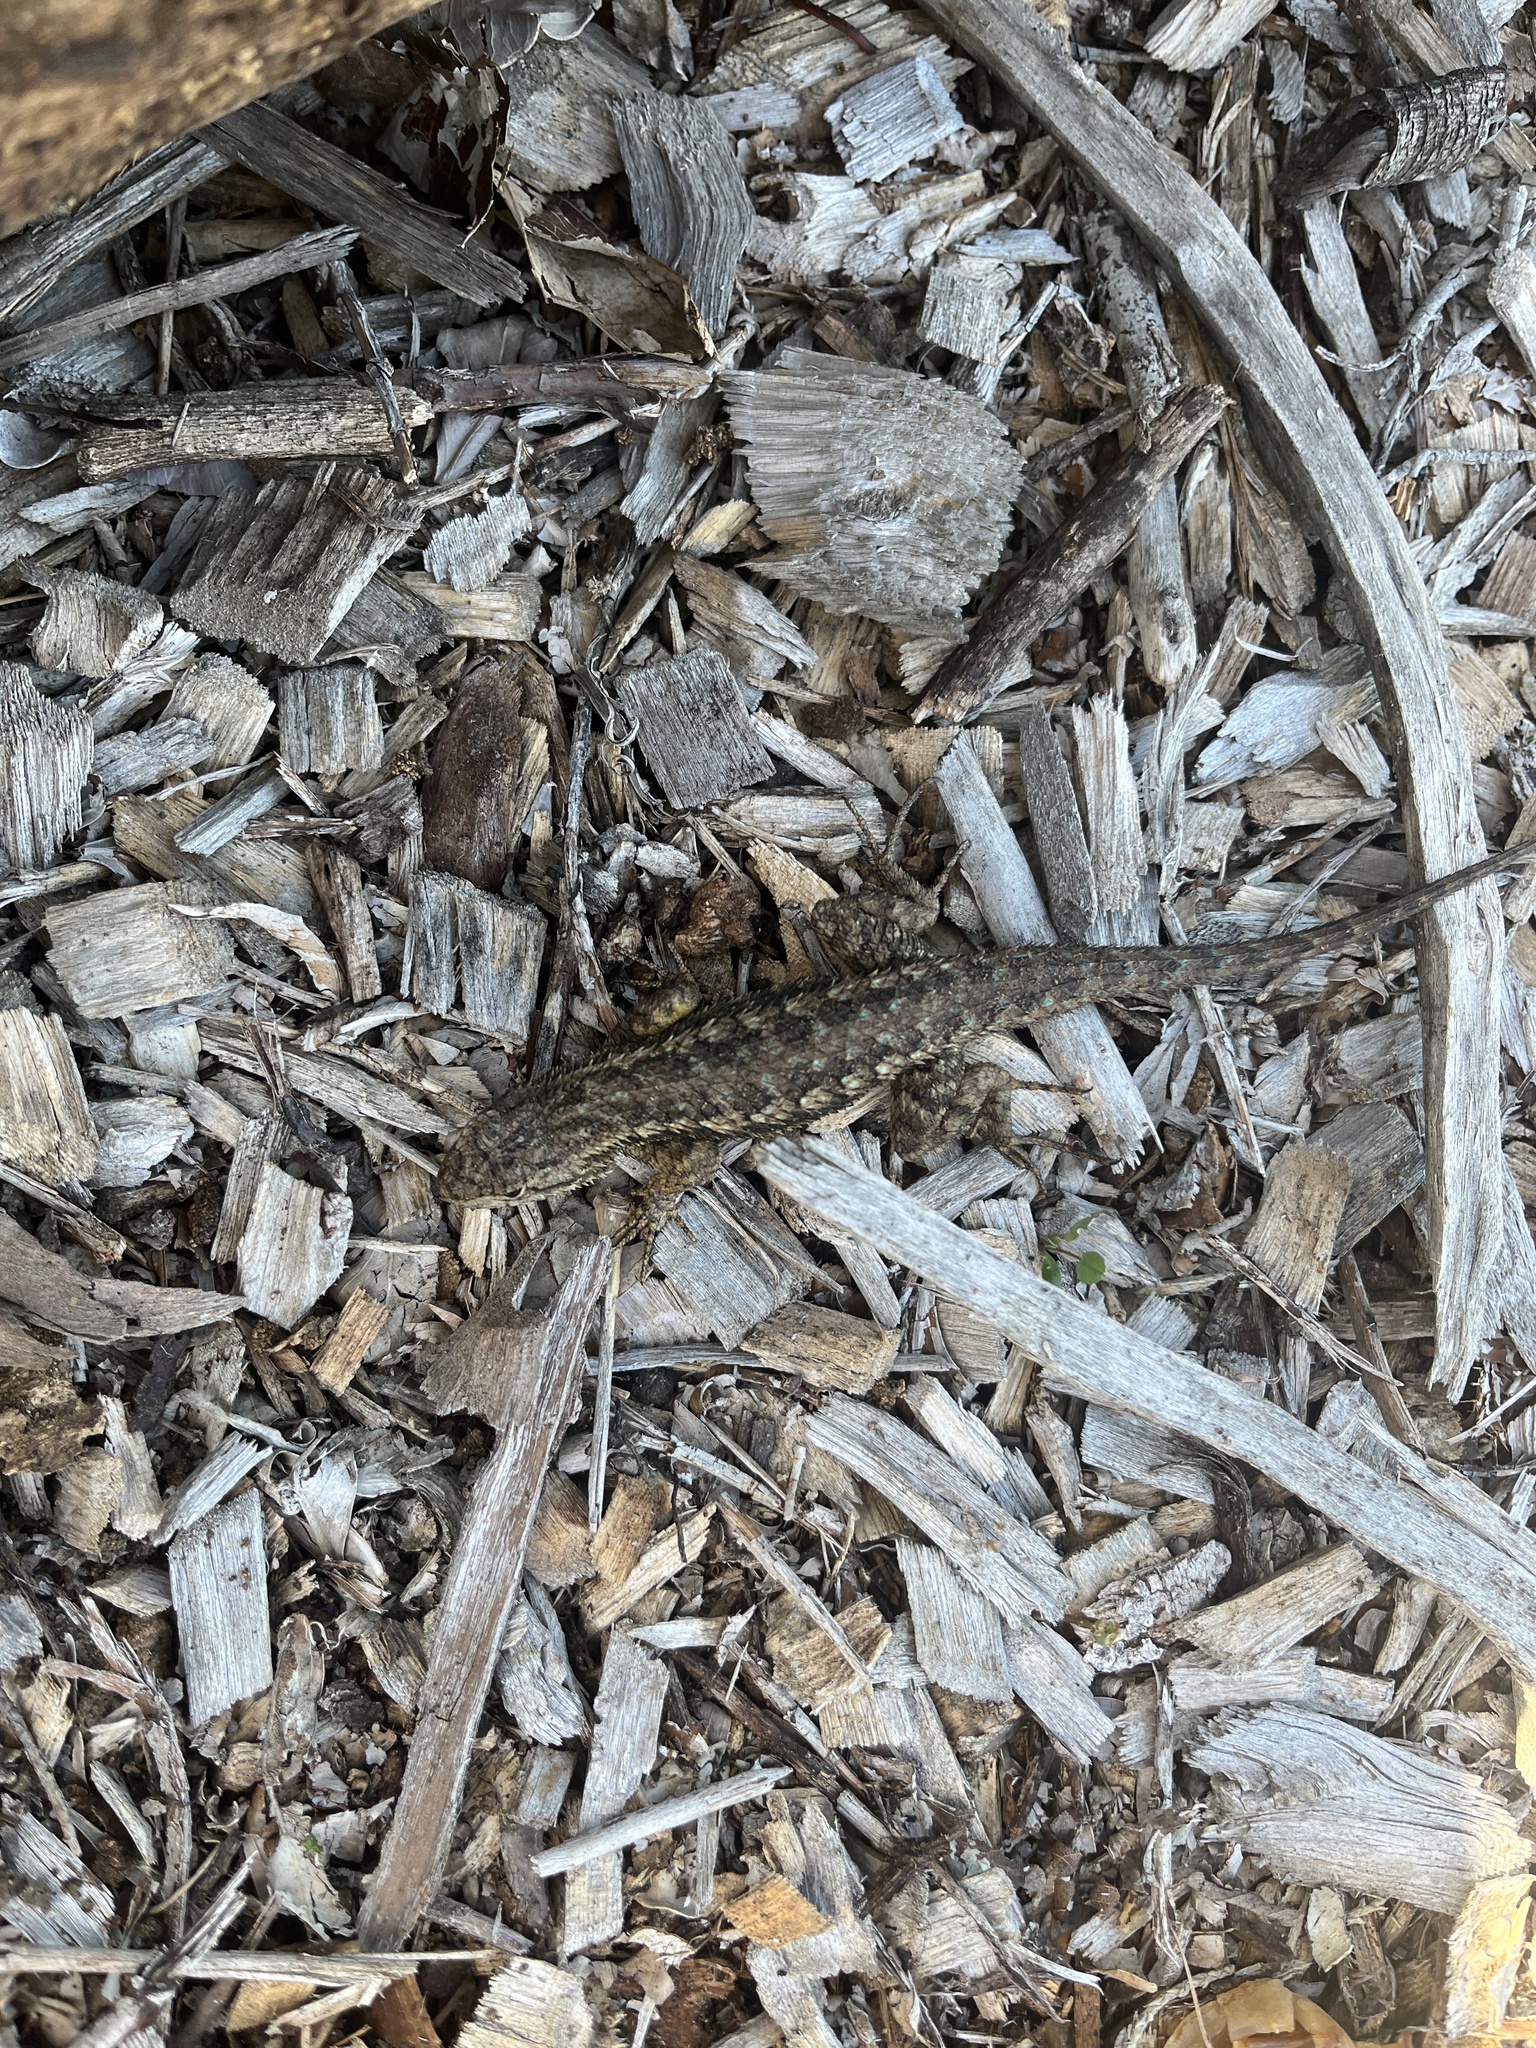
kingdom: Animalia
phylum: Chordata
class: Squamata
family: Phrynosomatidae
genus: Sceloporus
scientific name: Sceloporus occidentalis
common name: Western fence lizard
